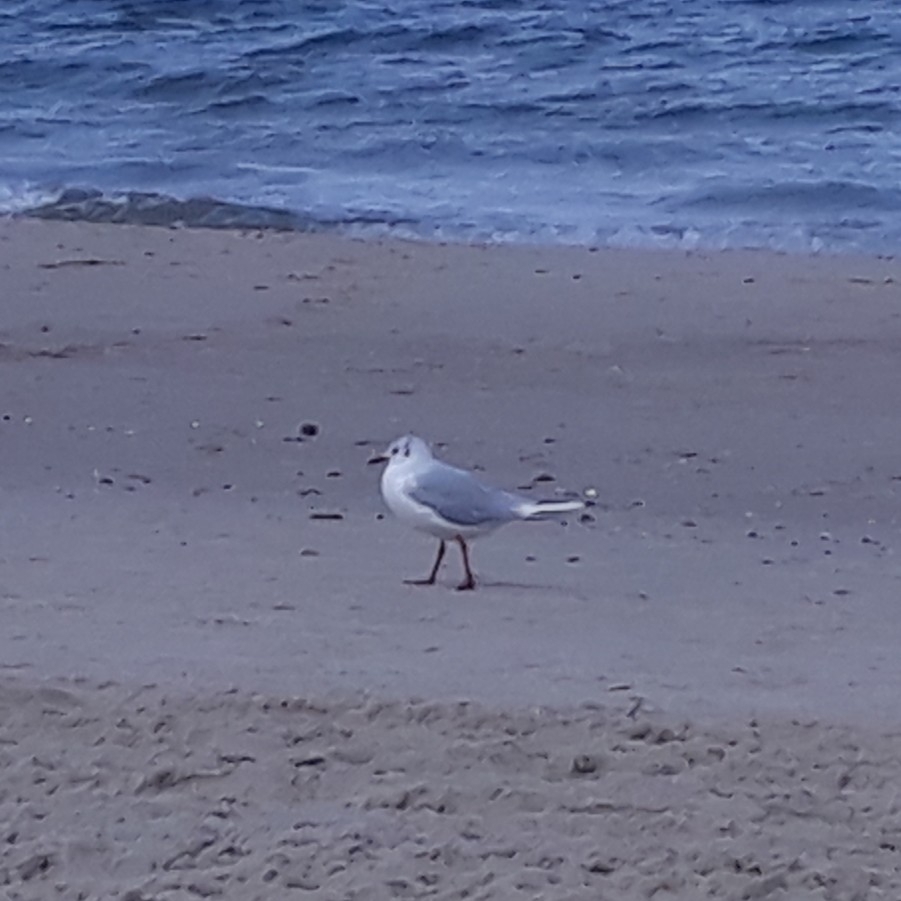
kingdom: Animalia
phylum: Chordata
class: Aves
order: Charadriiformes
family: Laridae
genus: Chroicocephalus
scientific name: Chroicocephalus ridibundus
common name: Black-headed gull
